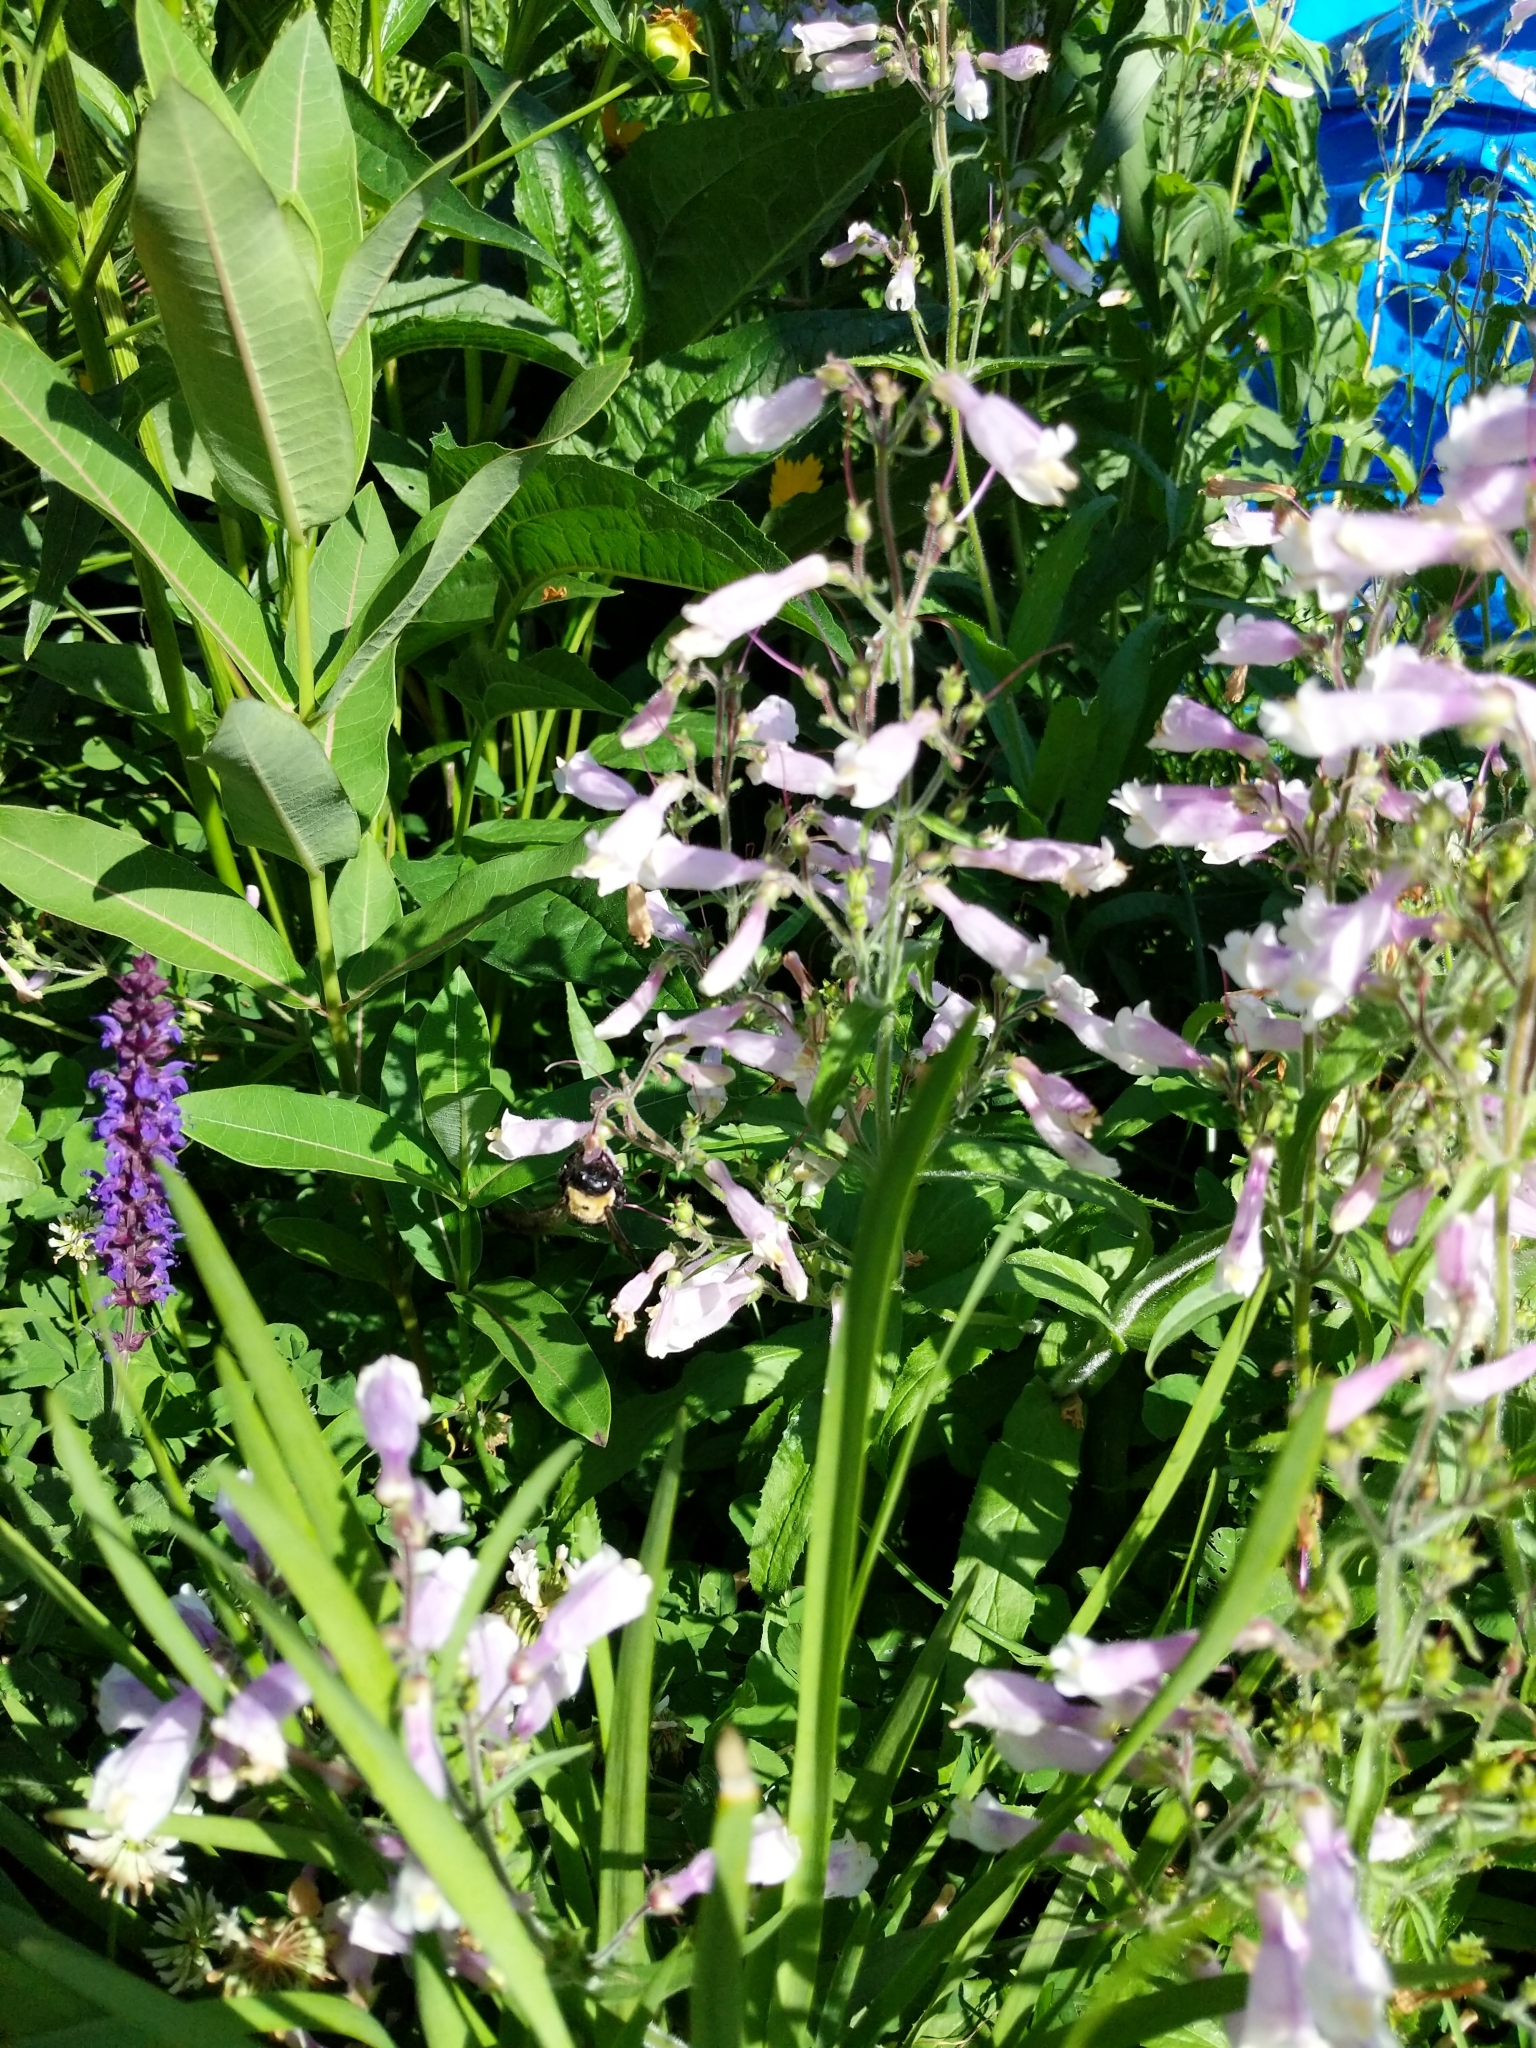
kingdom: Animalia
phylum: Arthropoda
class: Insecta
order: Hymenoptera
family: Apidae
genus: Xylocopa
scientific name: Xylocopa virginica
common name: Carpenter bee
